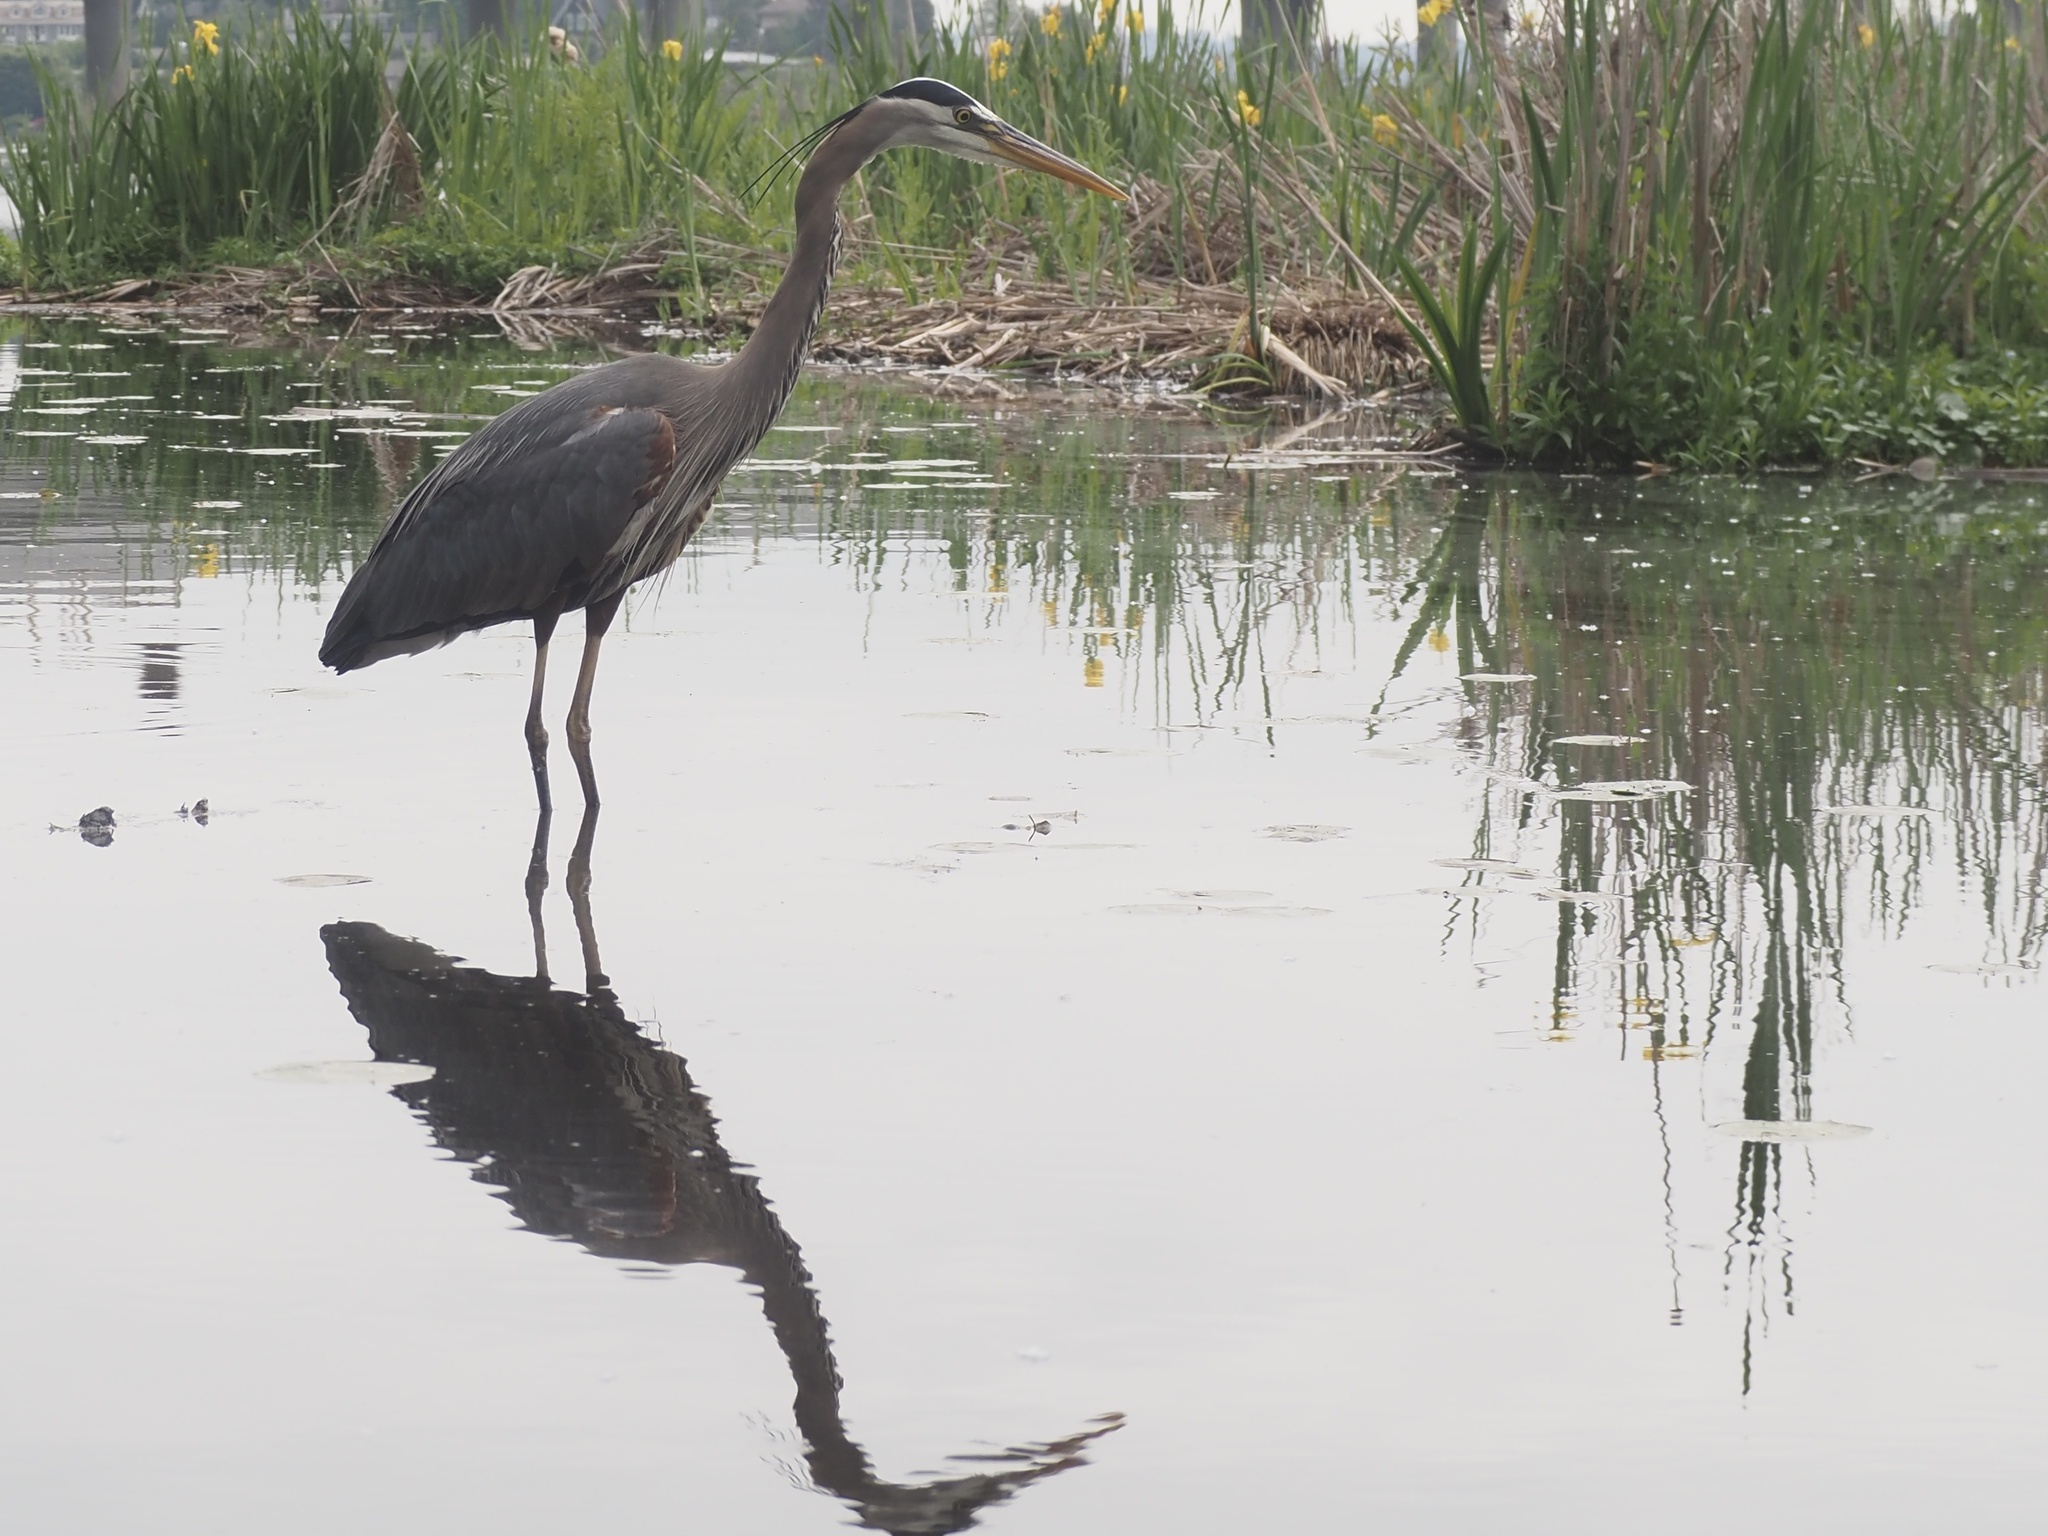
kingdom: Animalia
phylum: Chordata
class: Aves
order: Pelecaniformes
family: Ardeidae
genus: Ardea
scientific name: Ardea herodias
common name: Great blue heron
